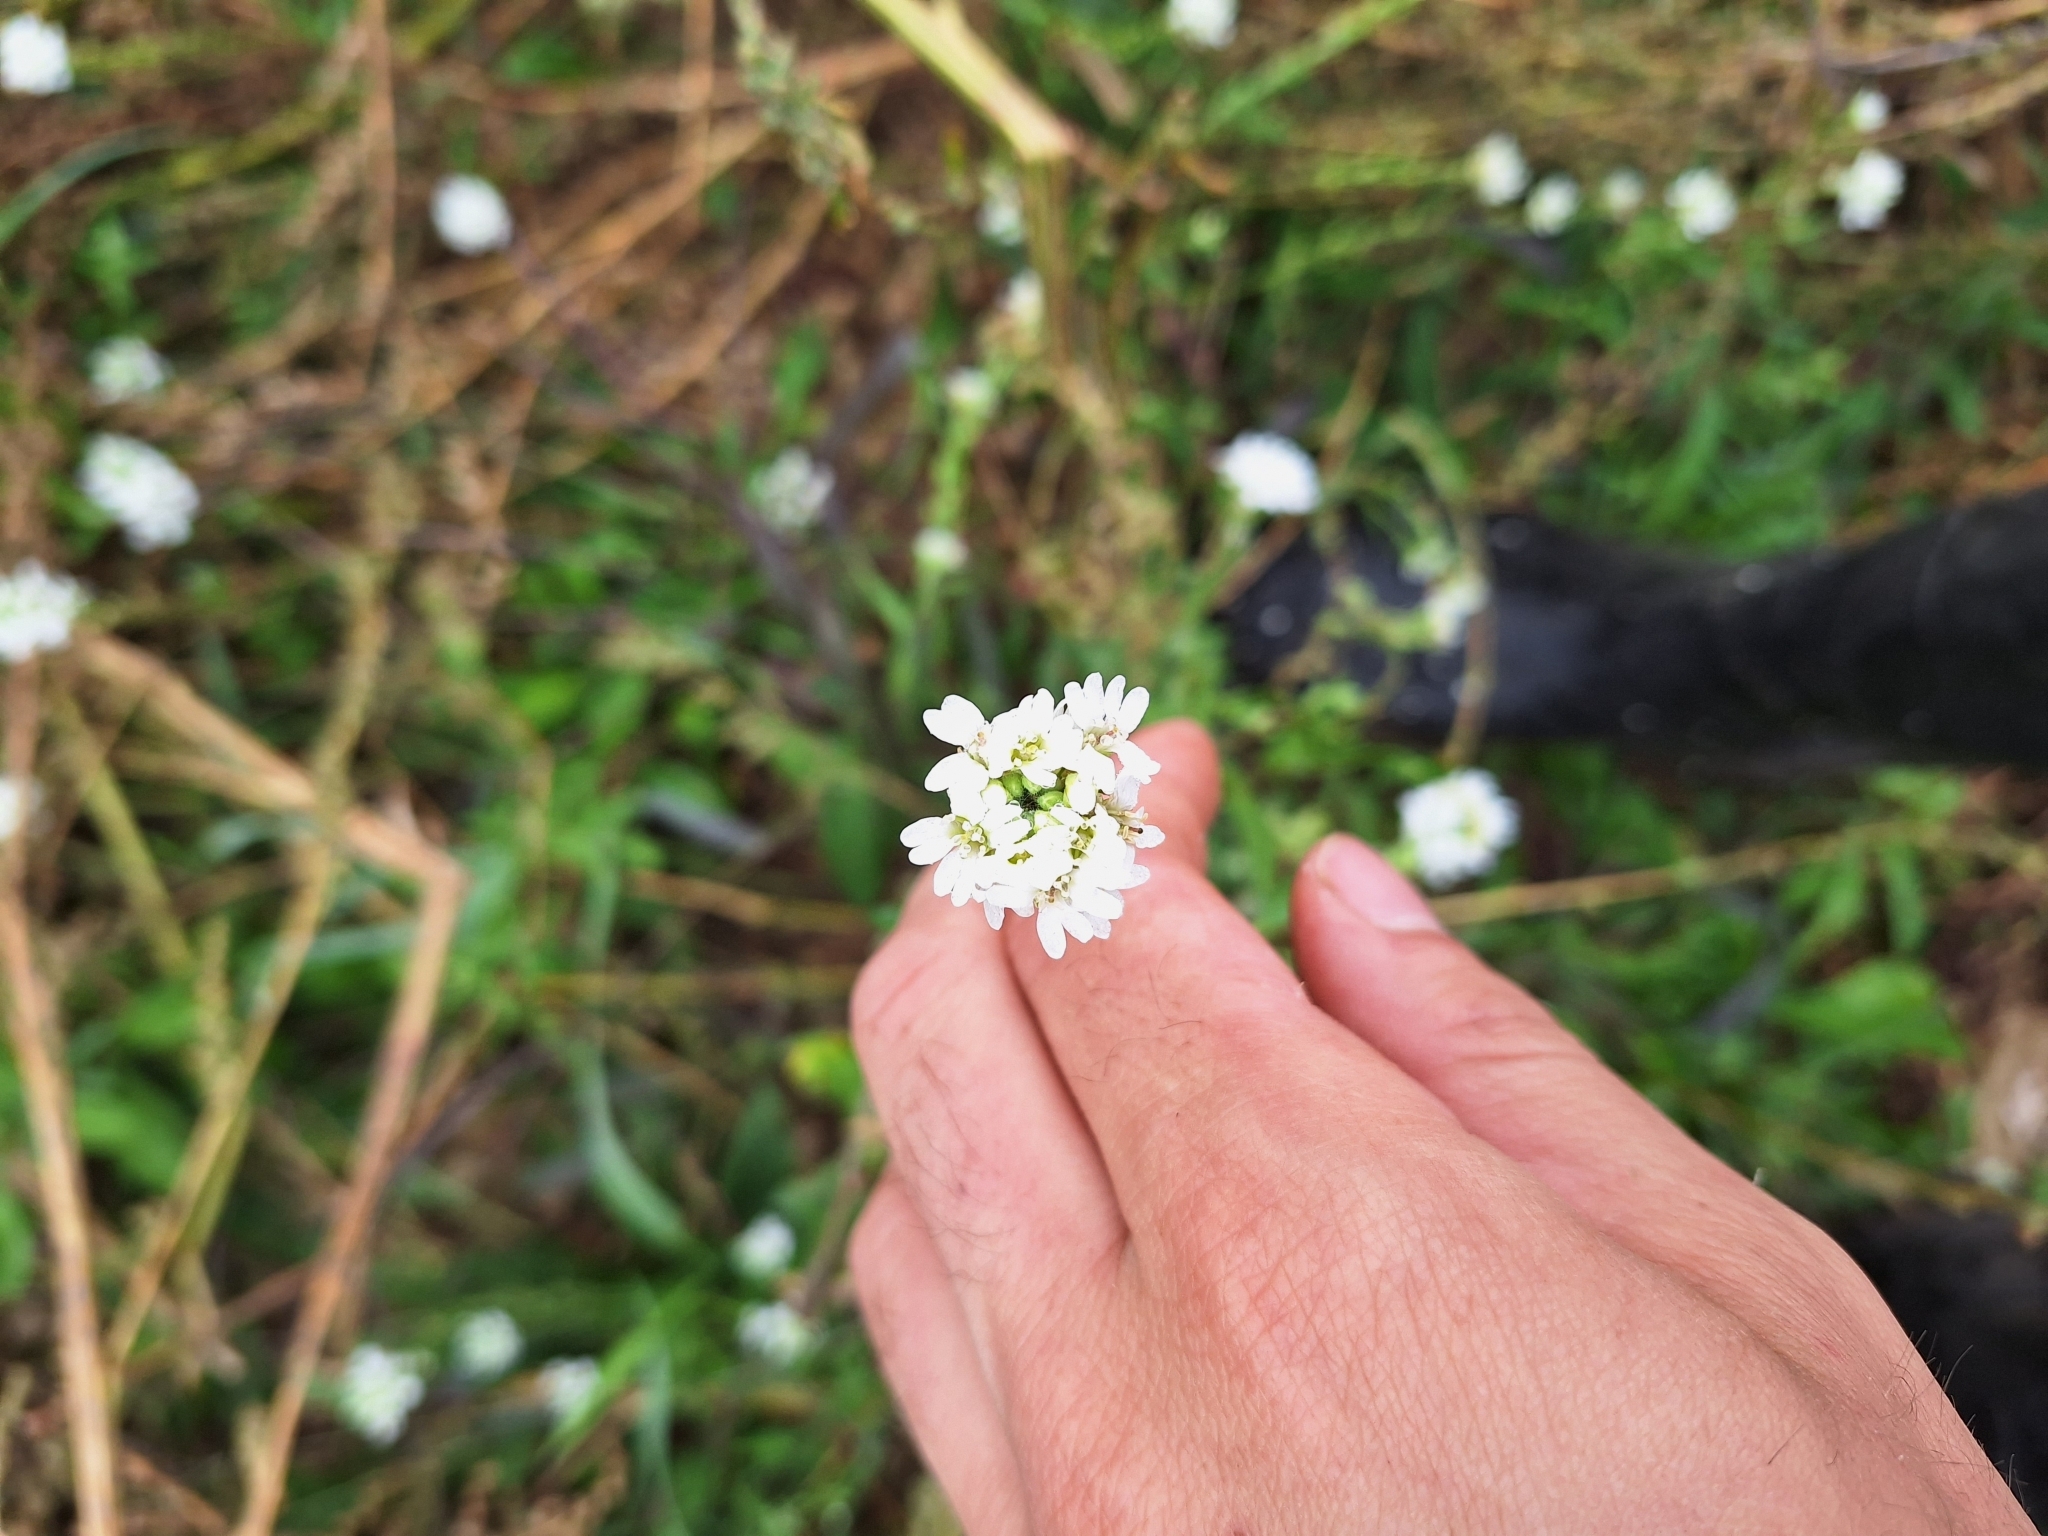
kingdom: Plantae
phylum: Tracheophyta
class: Magnoliopsida
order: Brassicales
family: Brassicaceae
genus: Berteroa
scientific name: Berteroa incana
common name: Hoary alison
